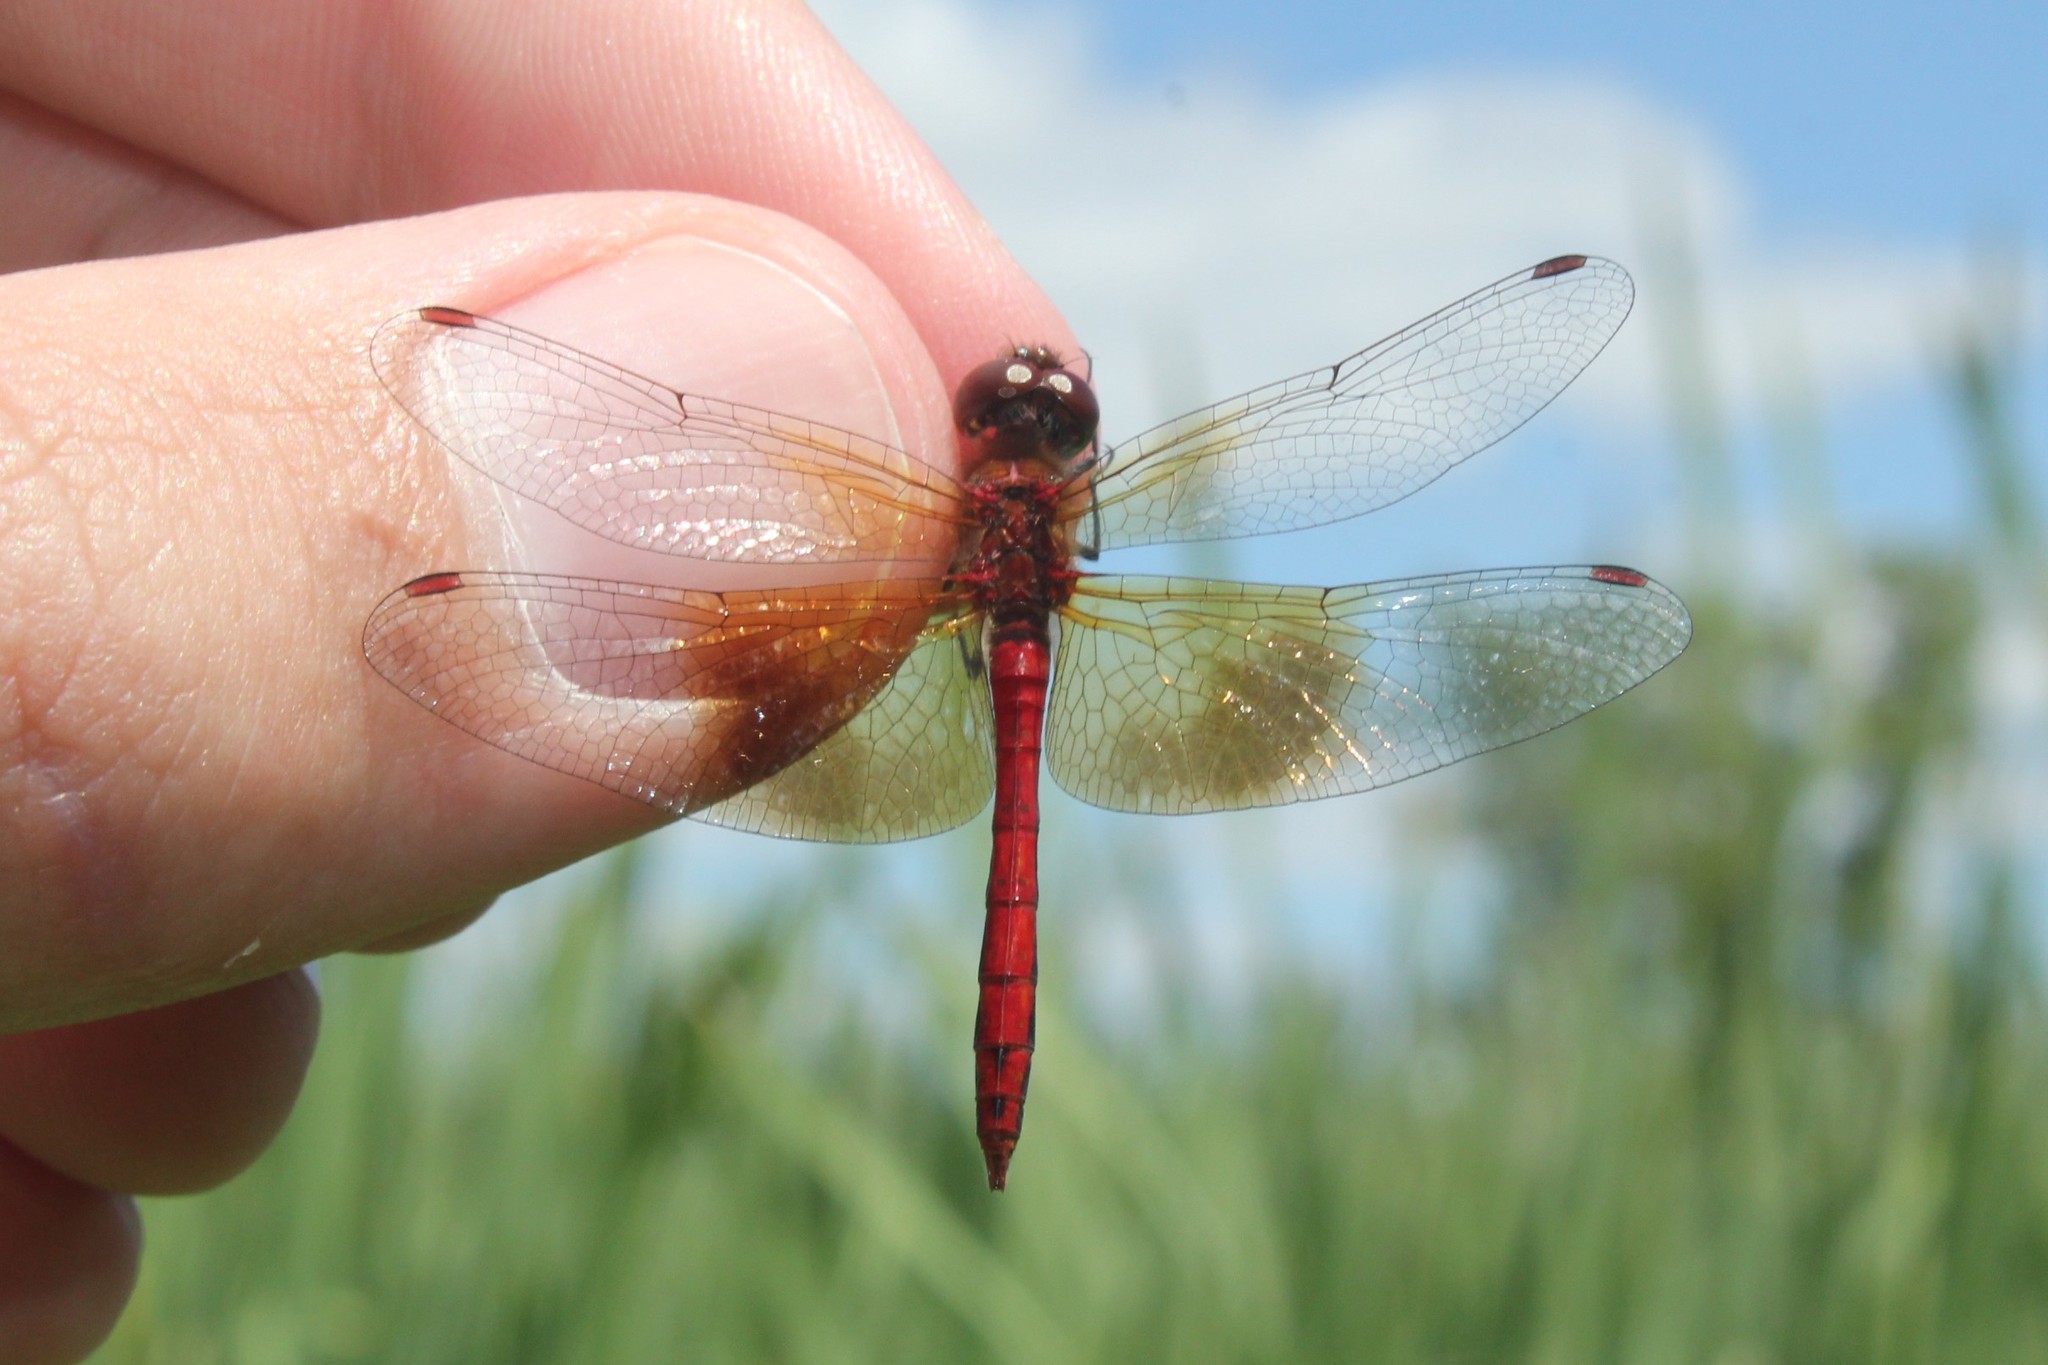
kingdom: Animalia
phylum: Arthropoda
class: Insecta
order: Odonata
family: Libellulidae
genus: Sympetrum
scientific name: Sympetrum semicinctum
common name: Band-winged meadowhawk
